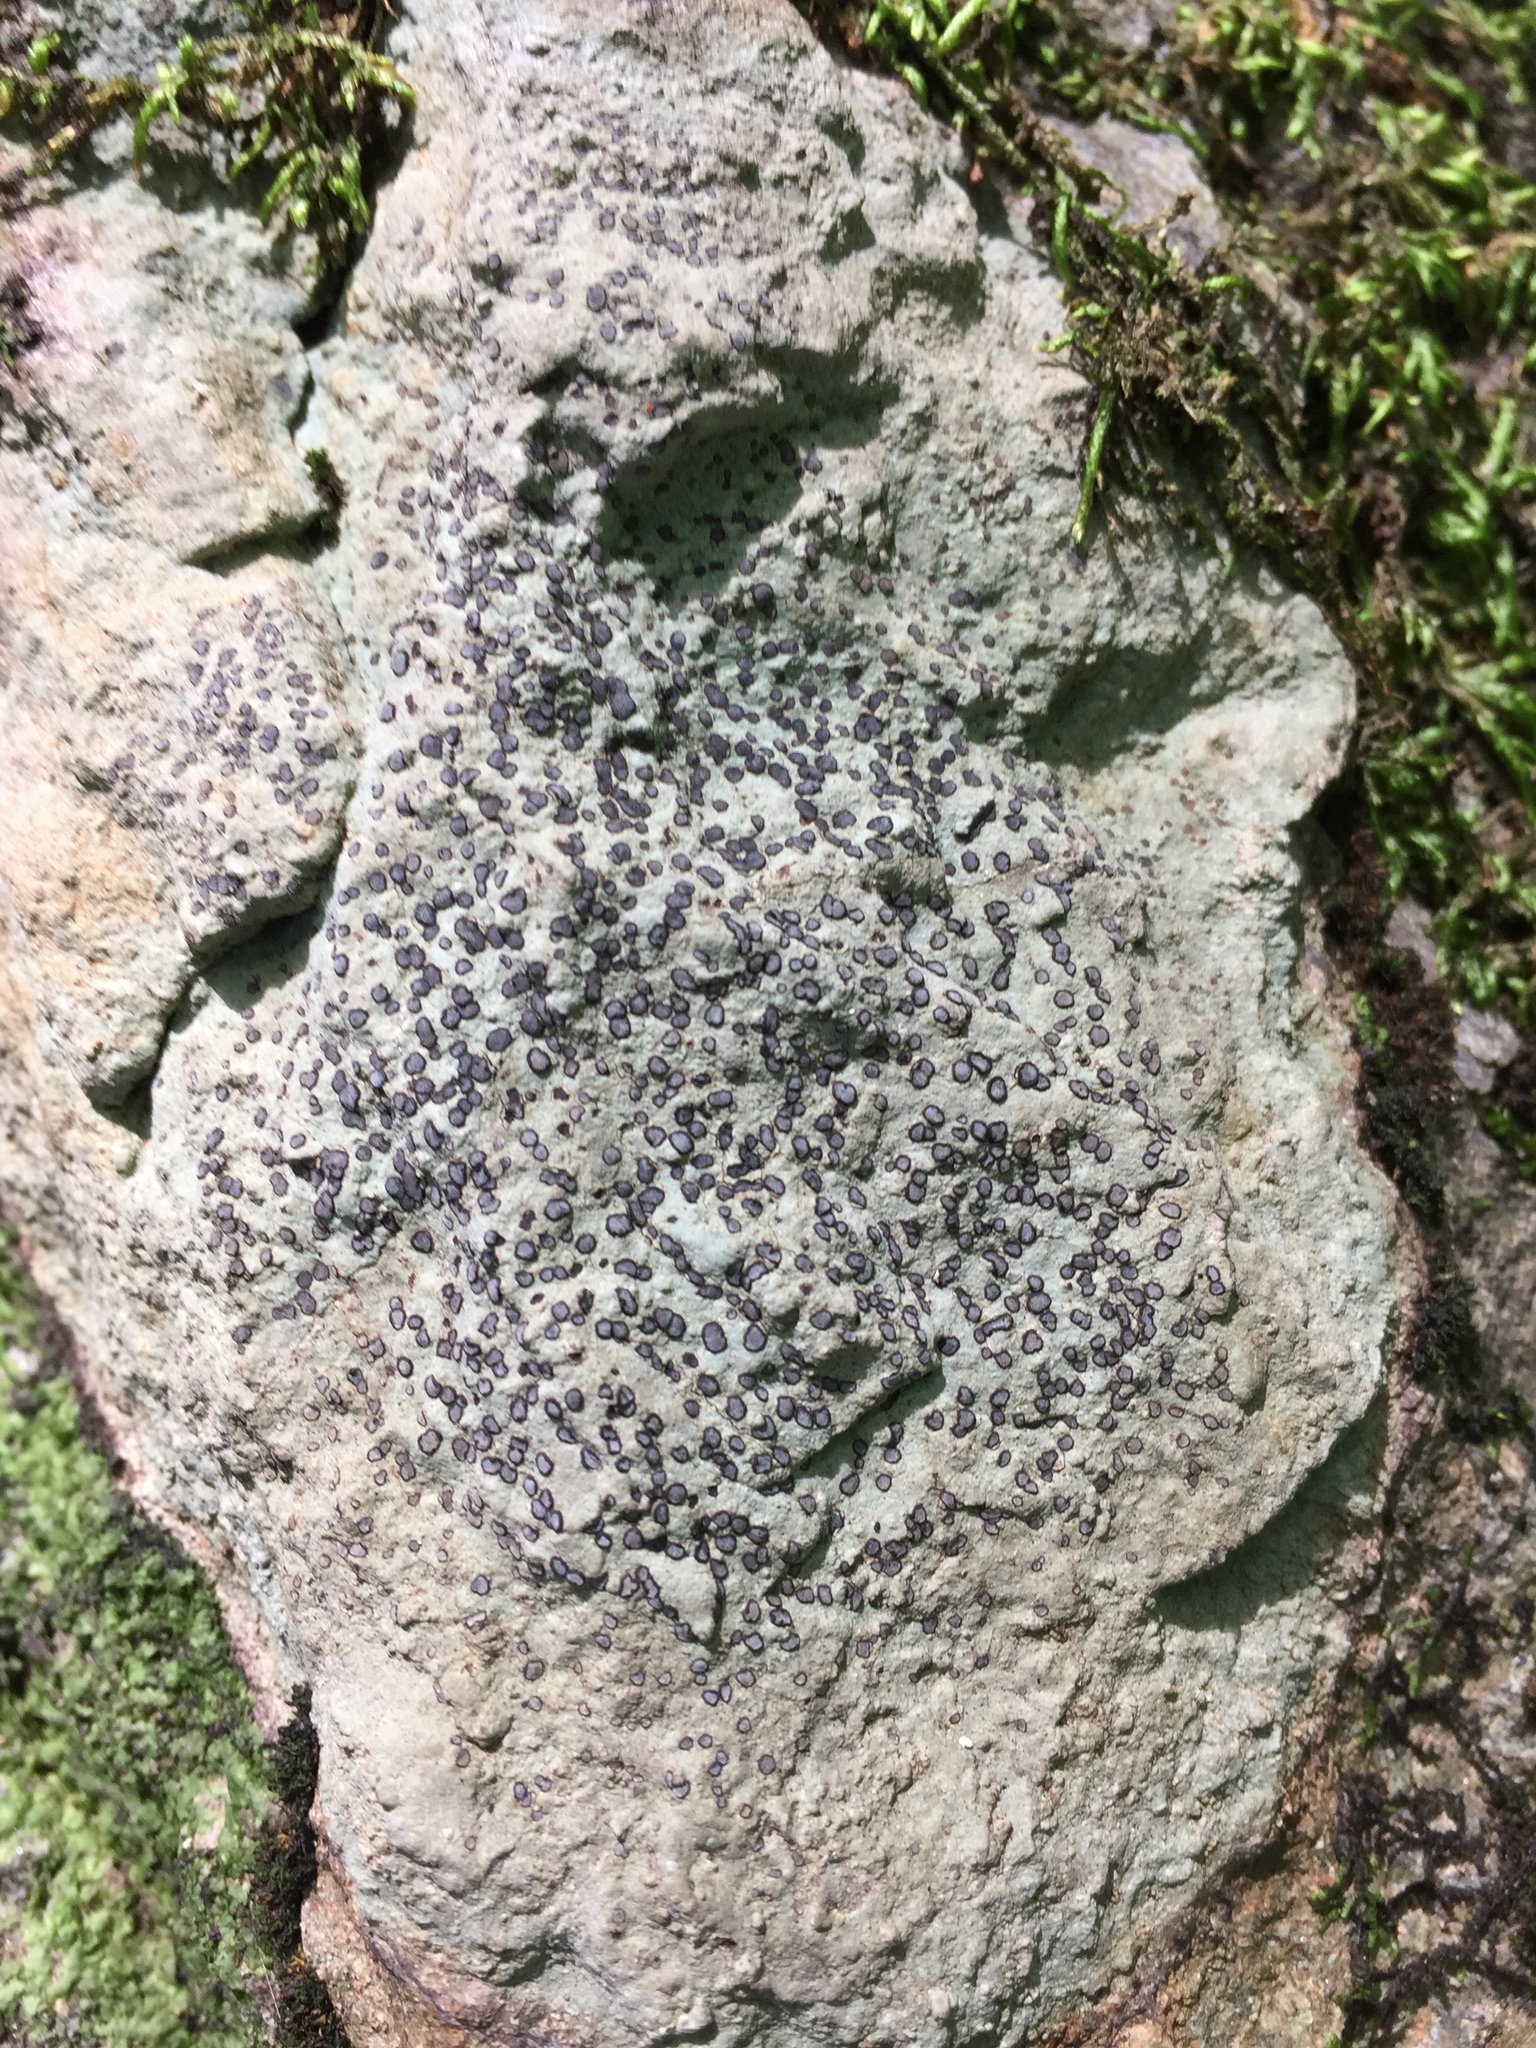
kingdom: Fungi
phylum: Ascomycota
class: Lecanoromycetes
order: Lecideales
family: Lecideaceae
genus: Porpidia
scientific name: Porpidia albocaerulescens
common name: Smokey-eyed boulder lichen
